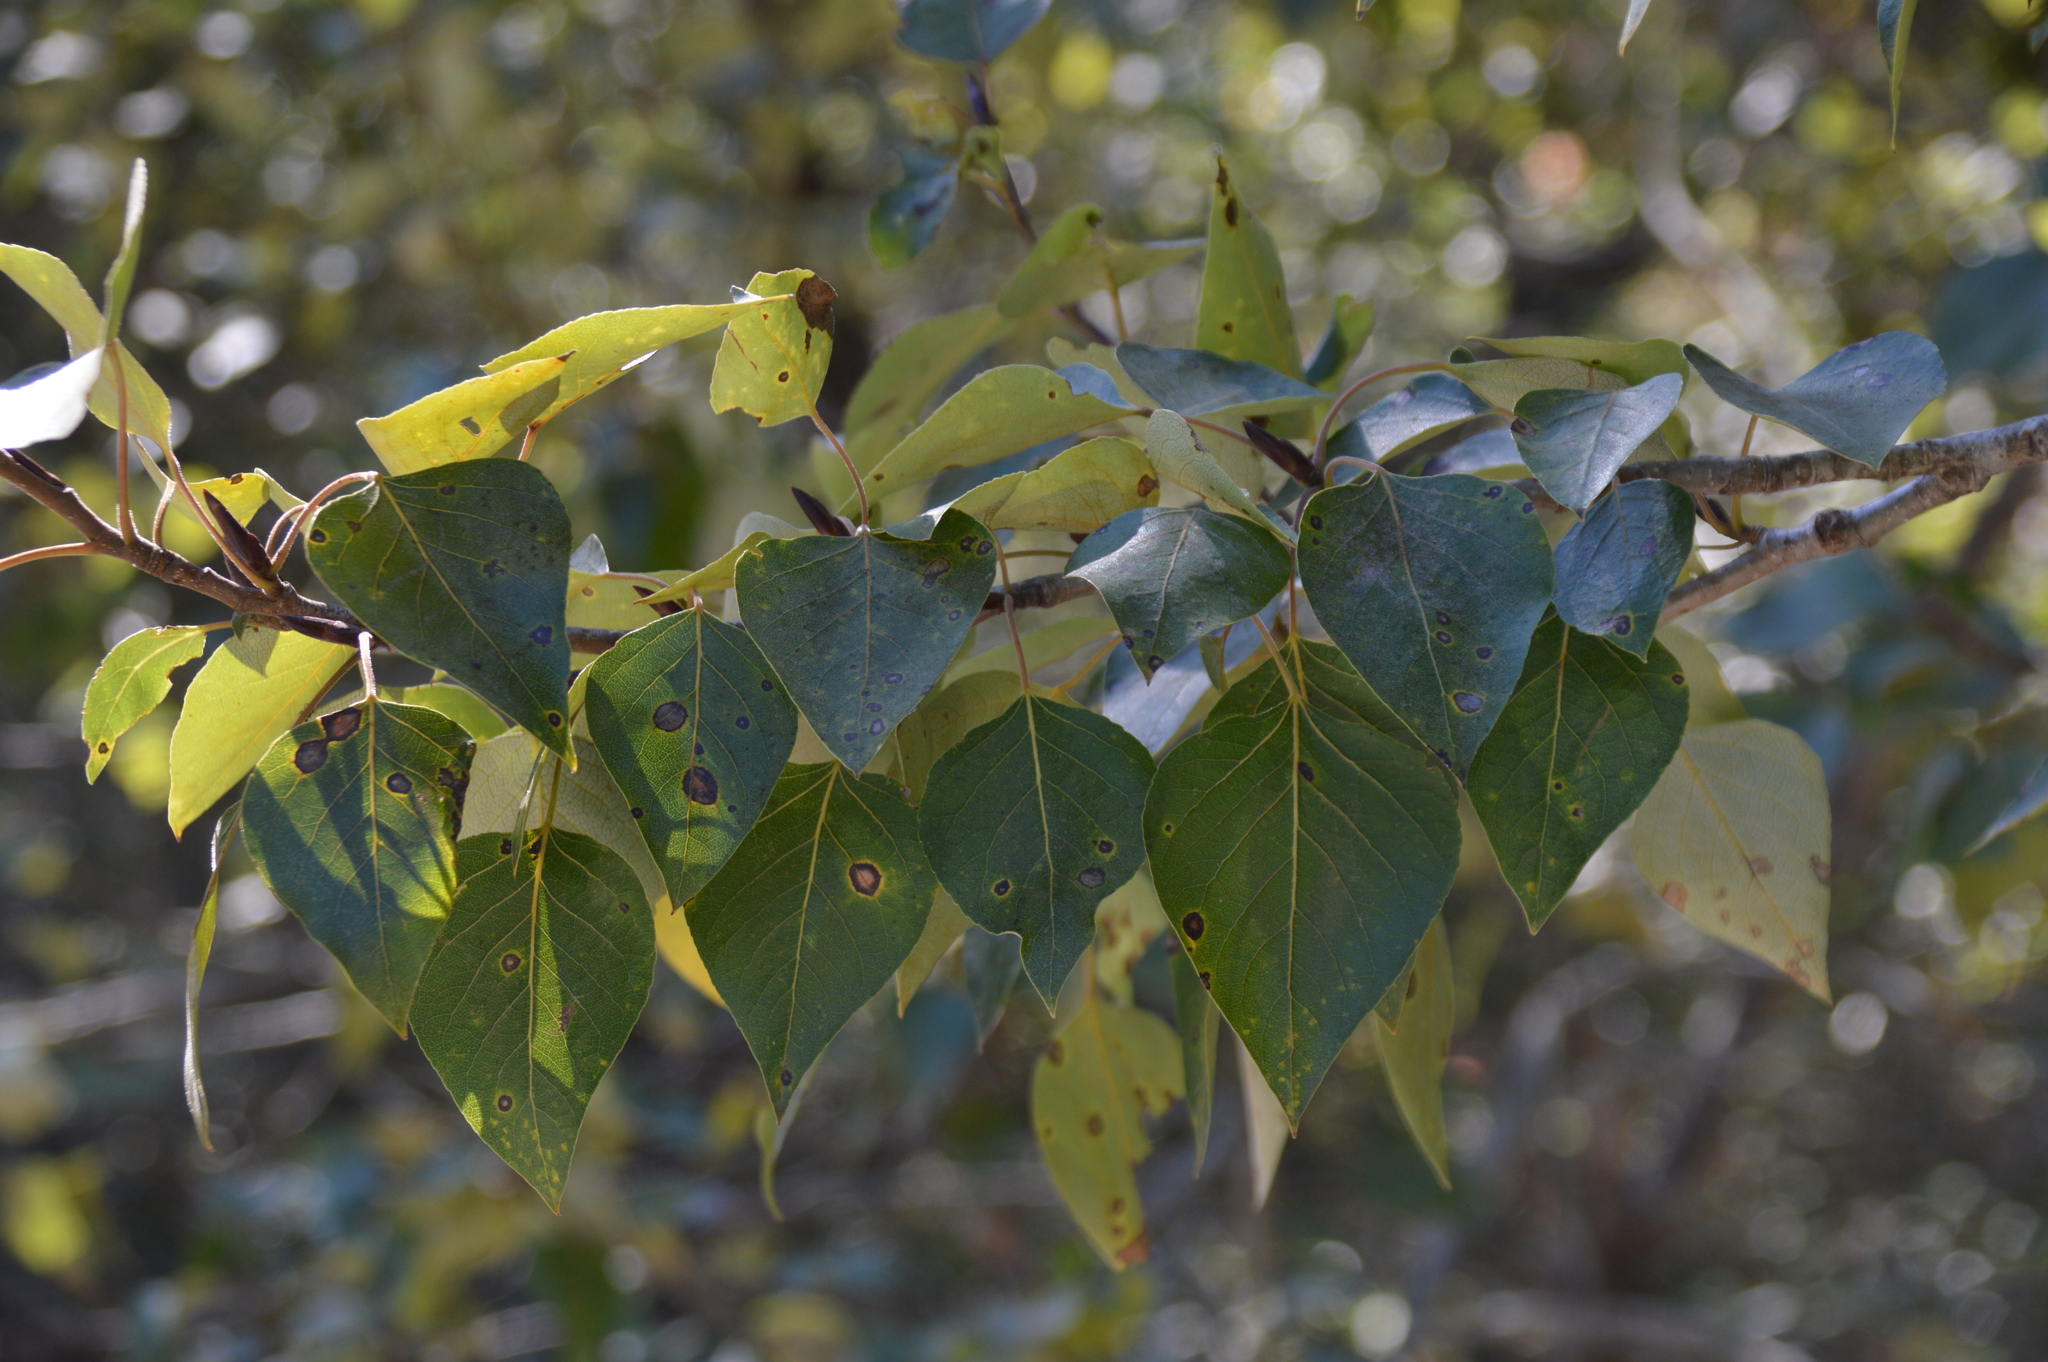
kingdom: Plantae
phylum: Tracheophyta
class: Magnoliopsida
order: Malpighiales
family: Salicaceae
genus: Populus
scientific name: Populus trichocarpa
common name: Black cottonwood
